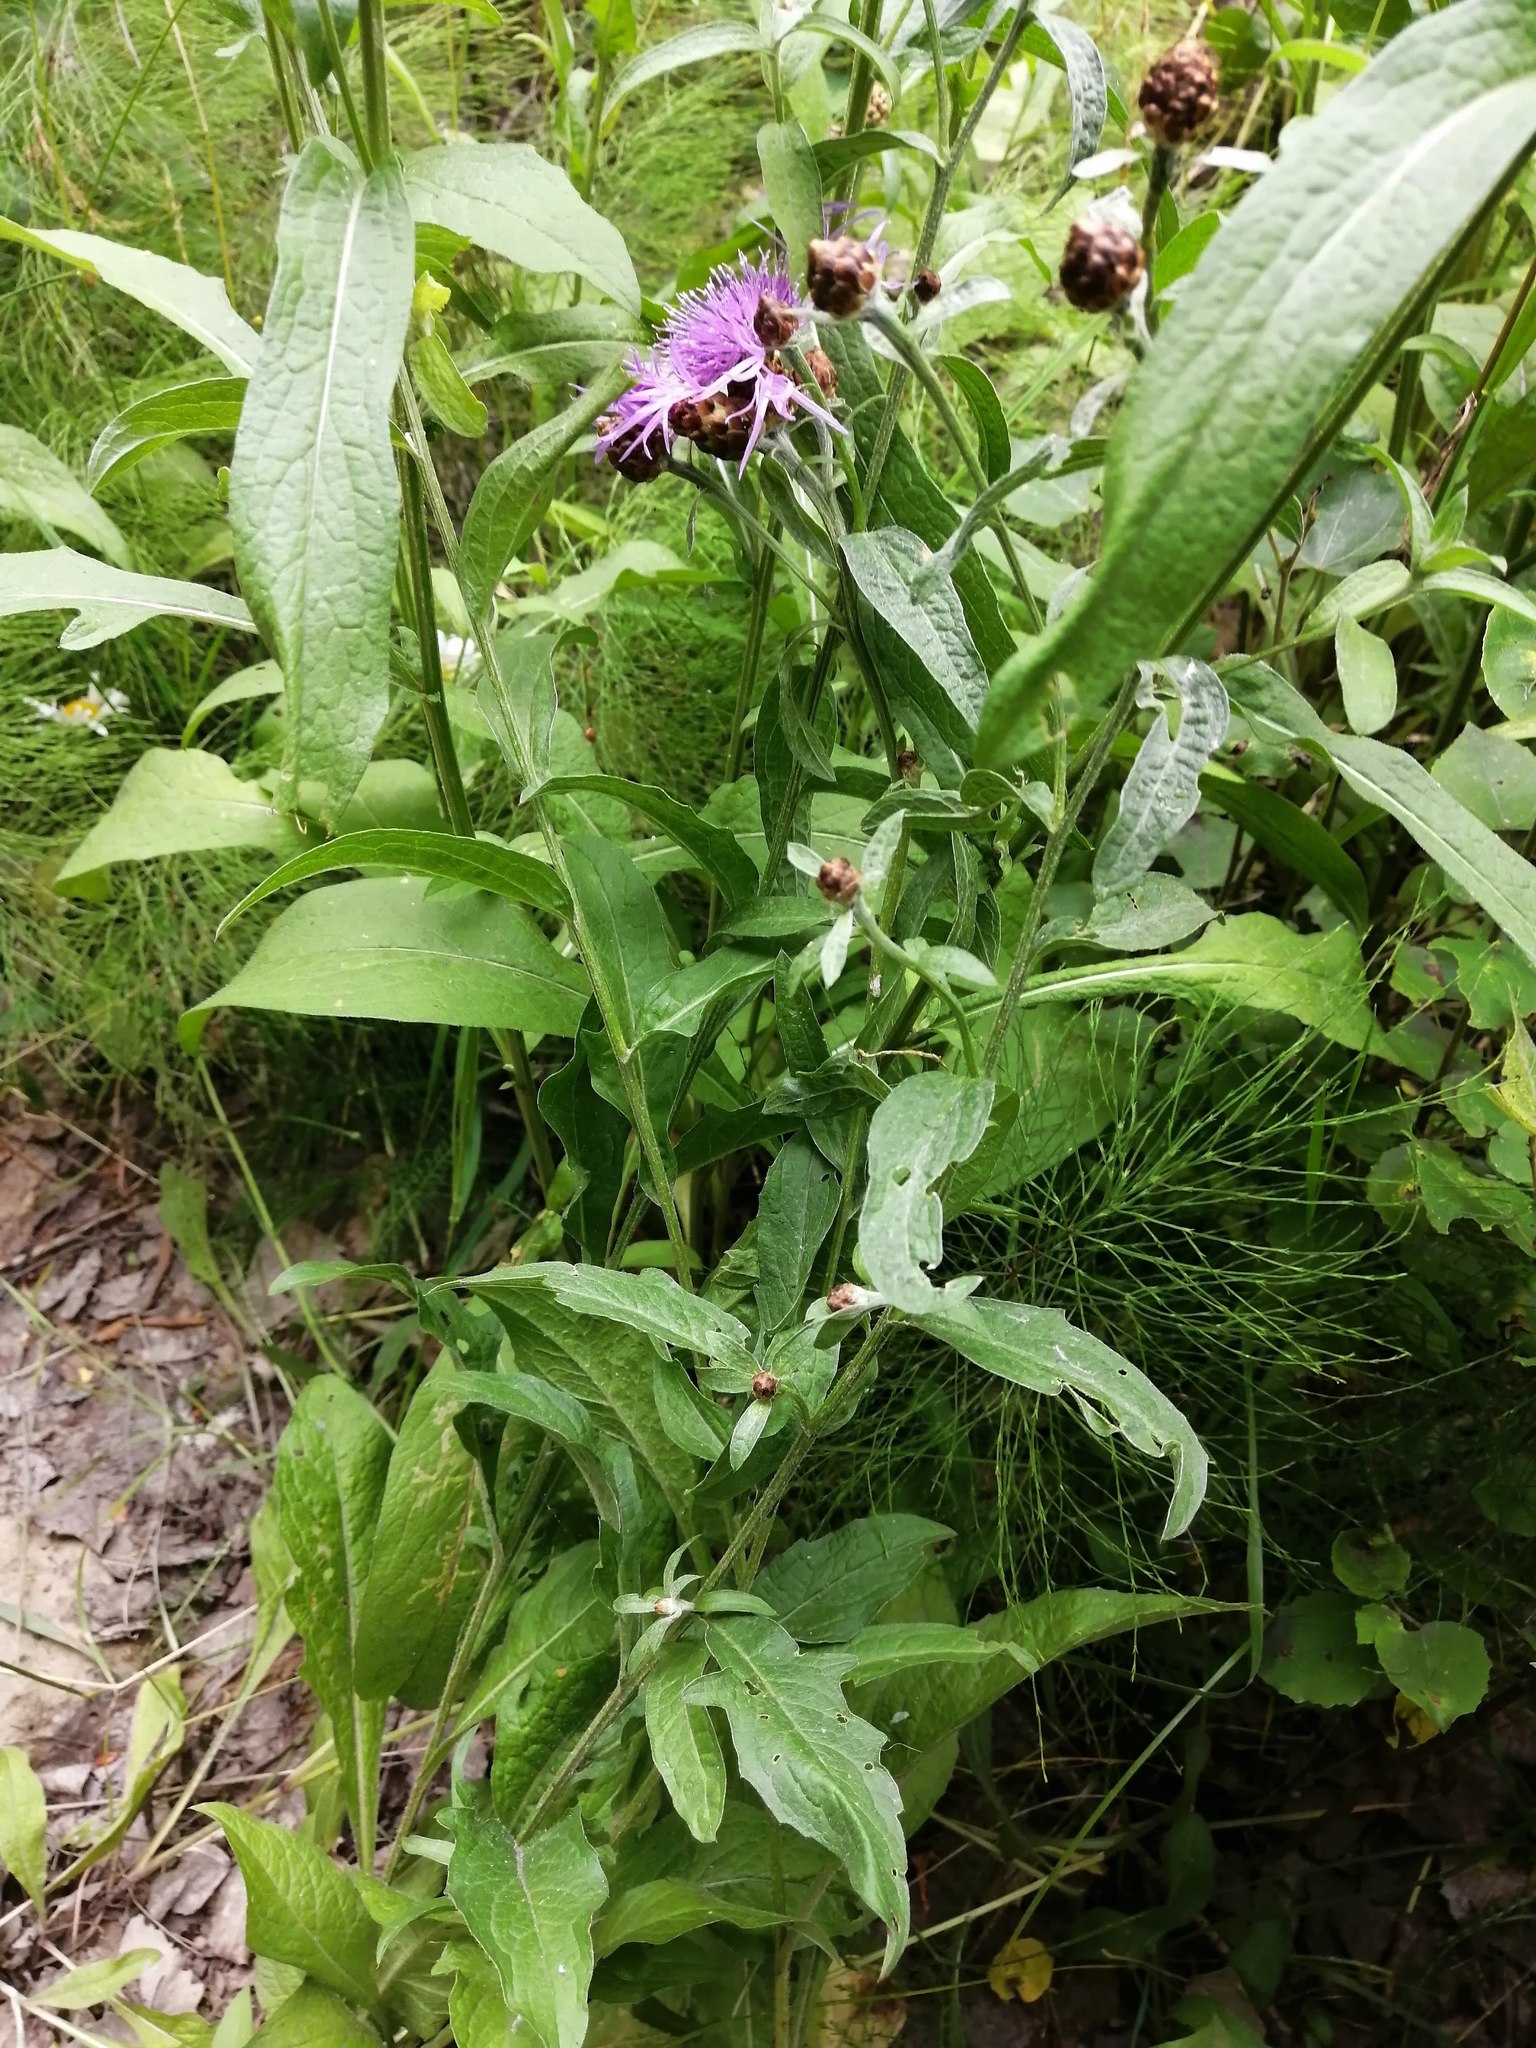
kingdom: Plantae
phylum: Tracheophyta
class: Magnoliopsida
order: Asterales
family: Asteraceae
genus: Centaurea
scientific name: Centaurea jacea
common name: Brown knapweed
